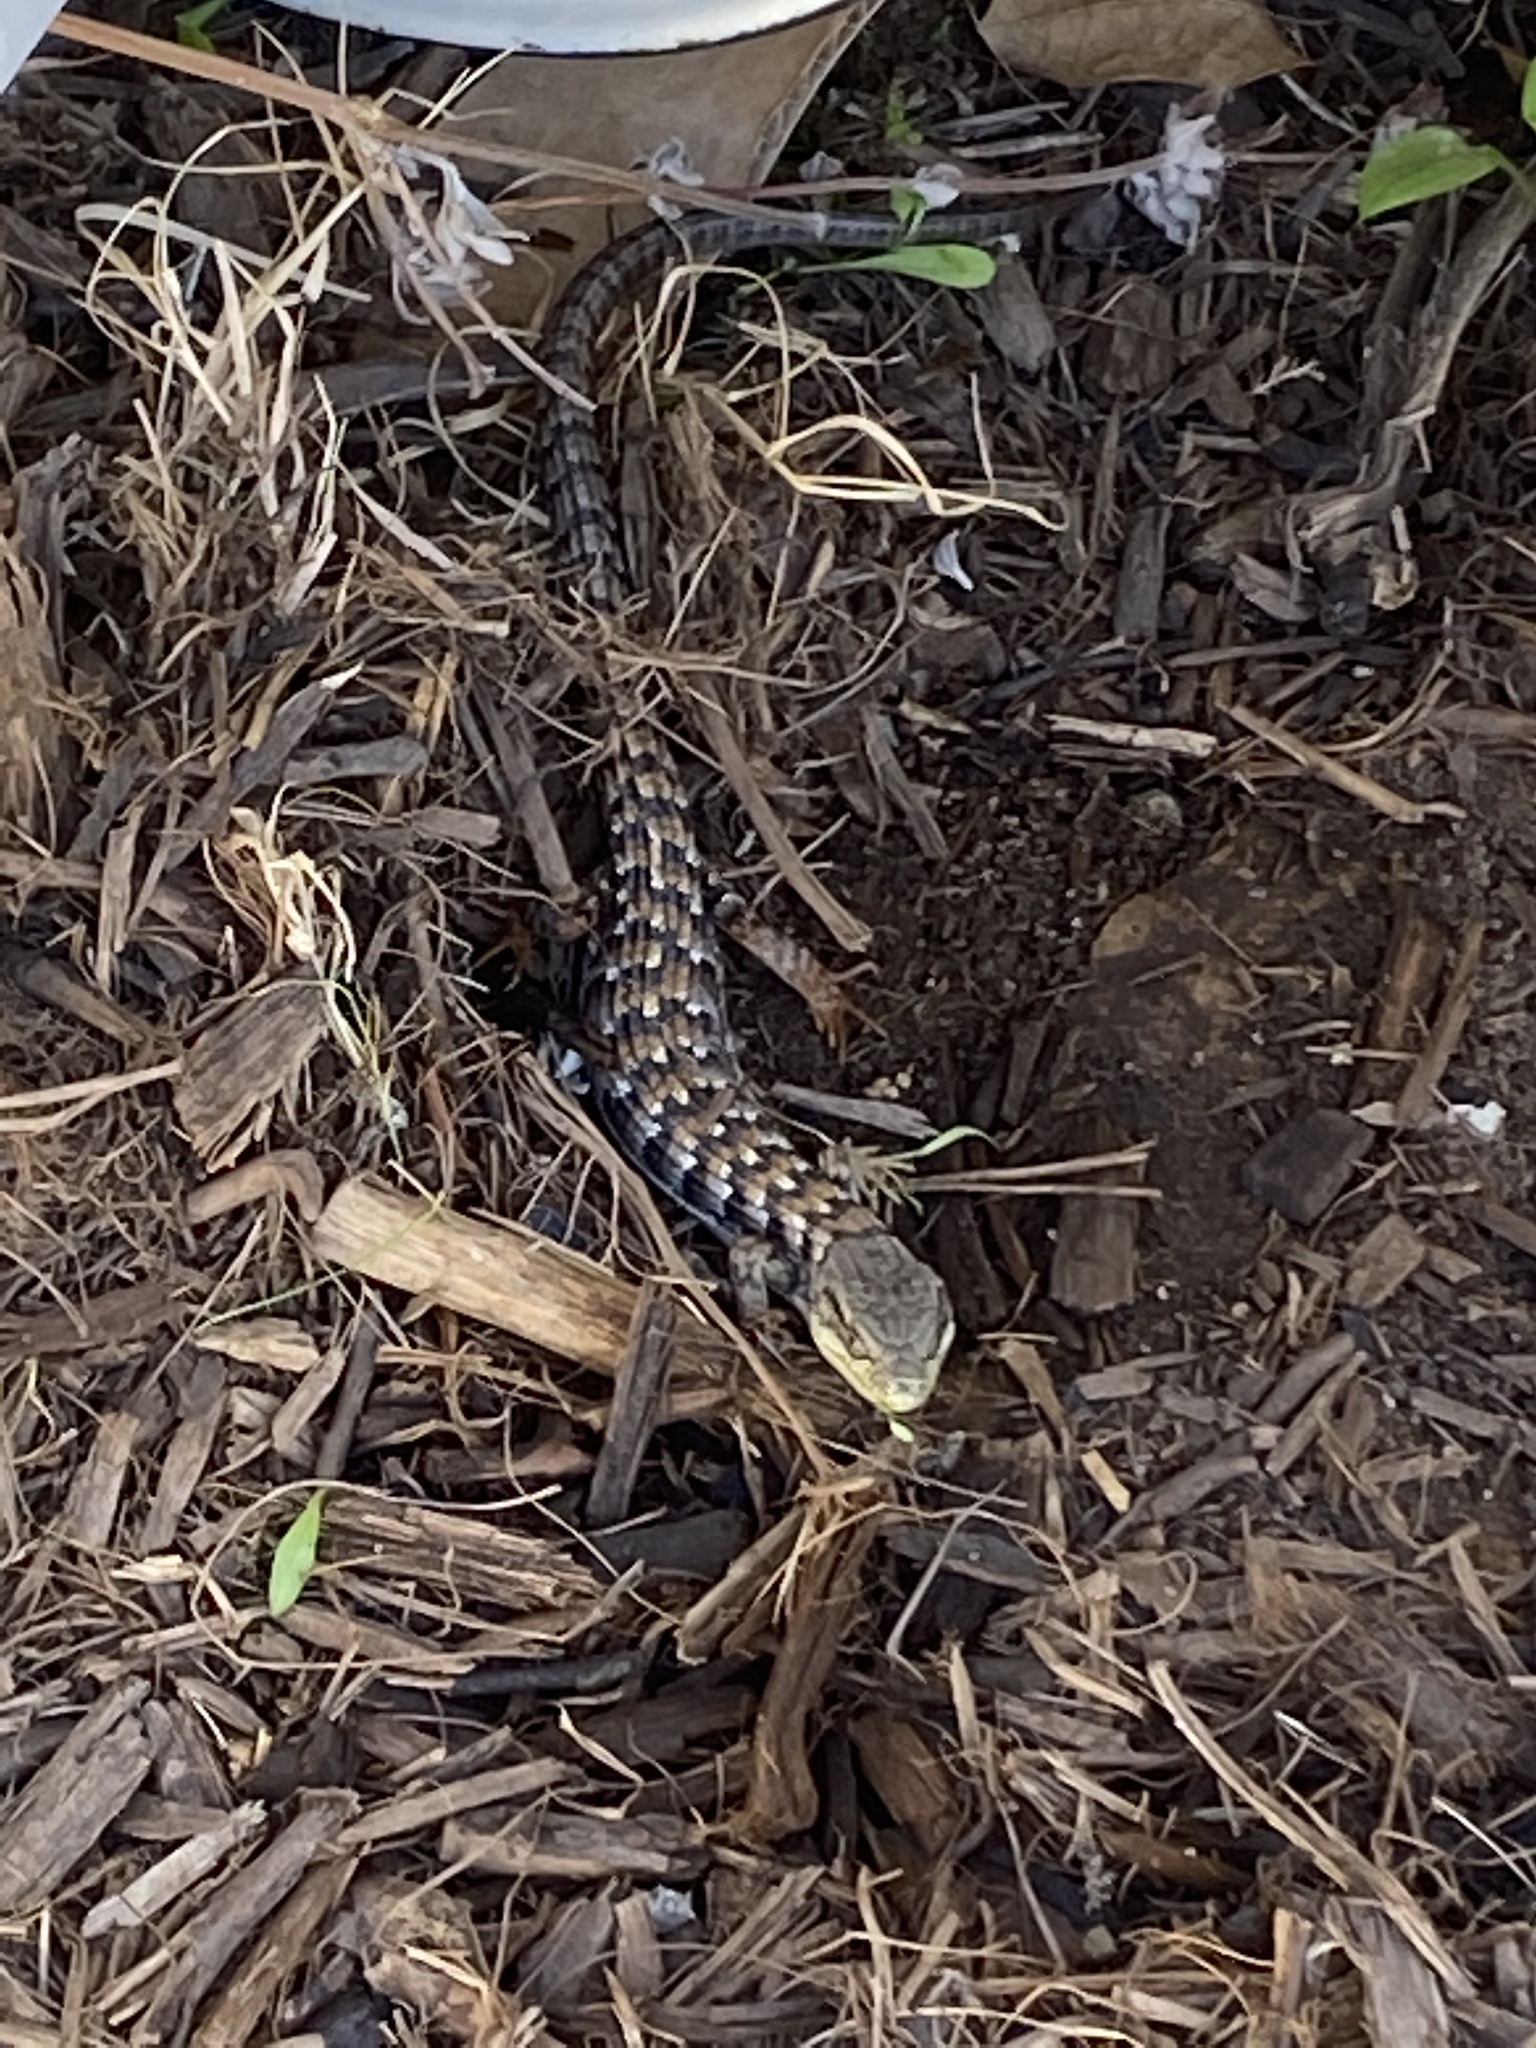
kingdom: Animalia
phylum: Chordata
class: Squamata
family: Anguidae
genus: Elgaria
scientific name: Elgaria multicarinata
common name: Southern alligator lizard
